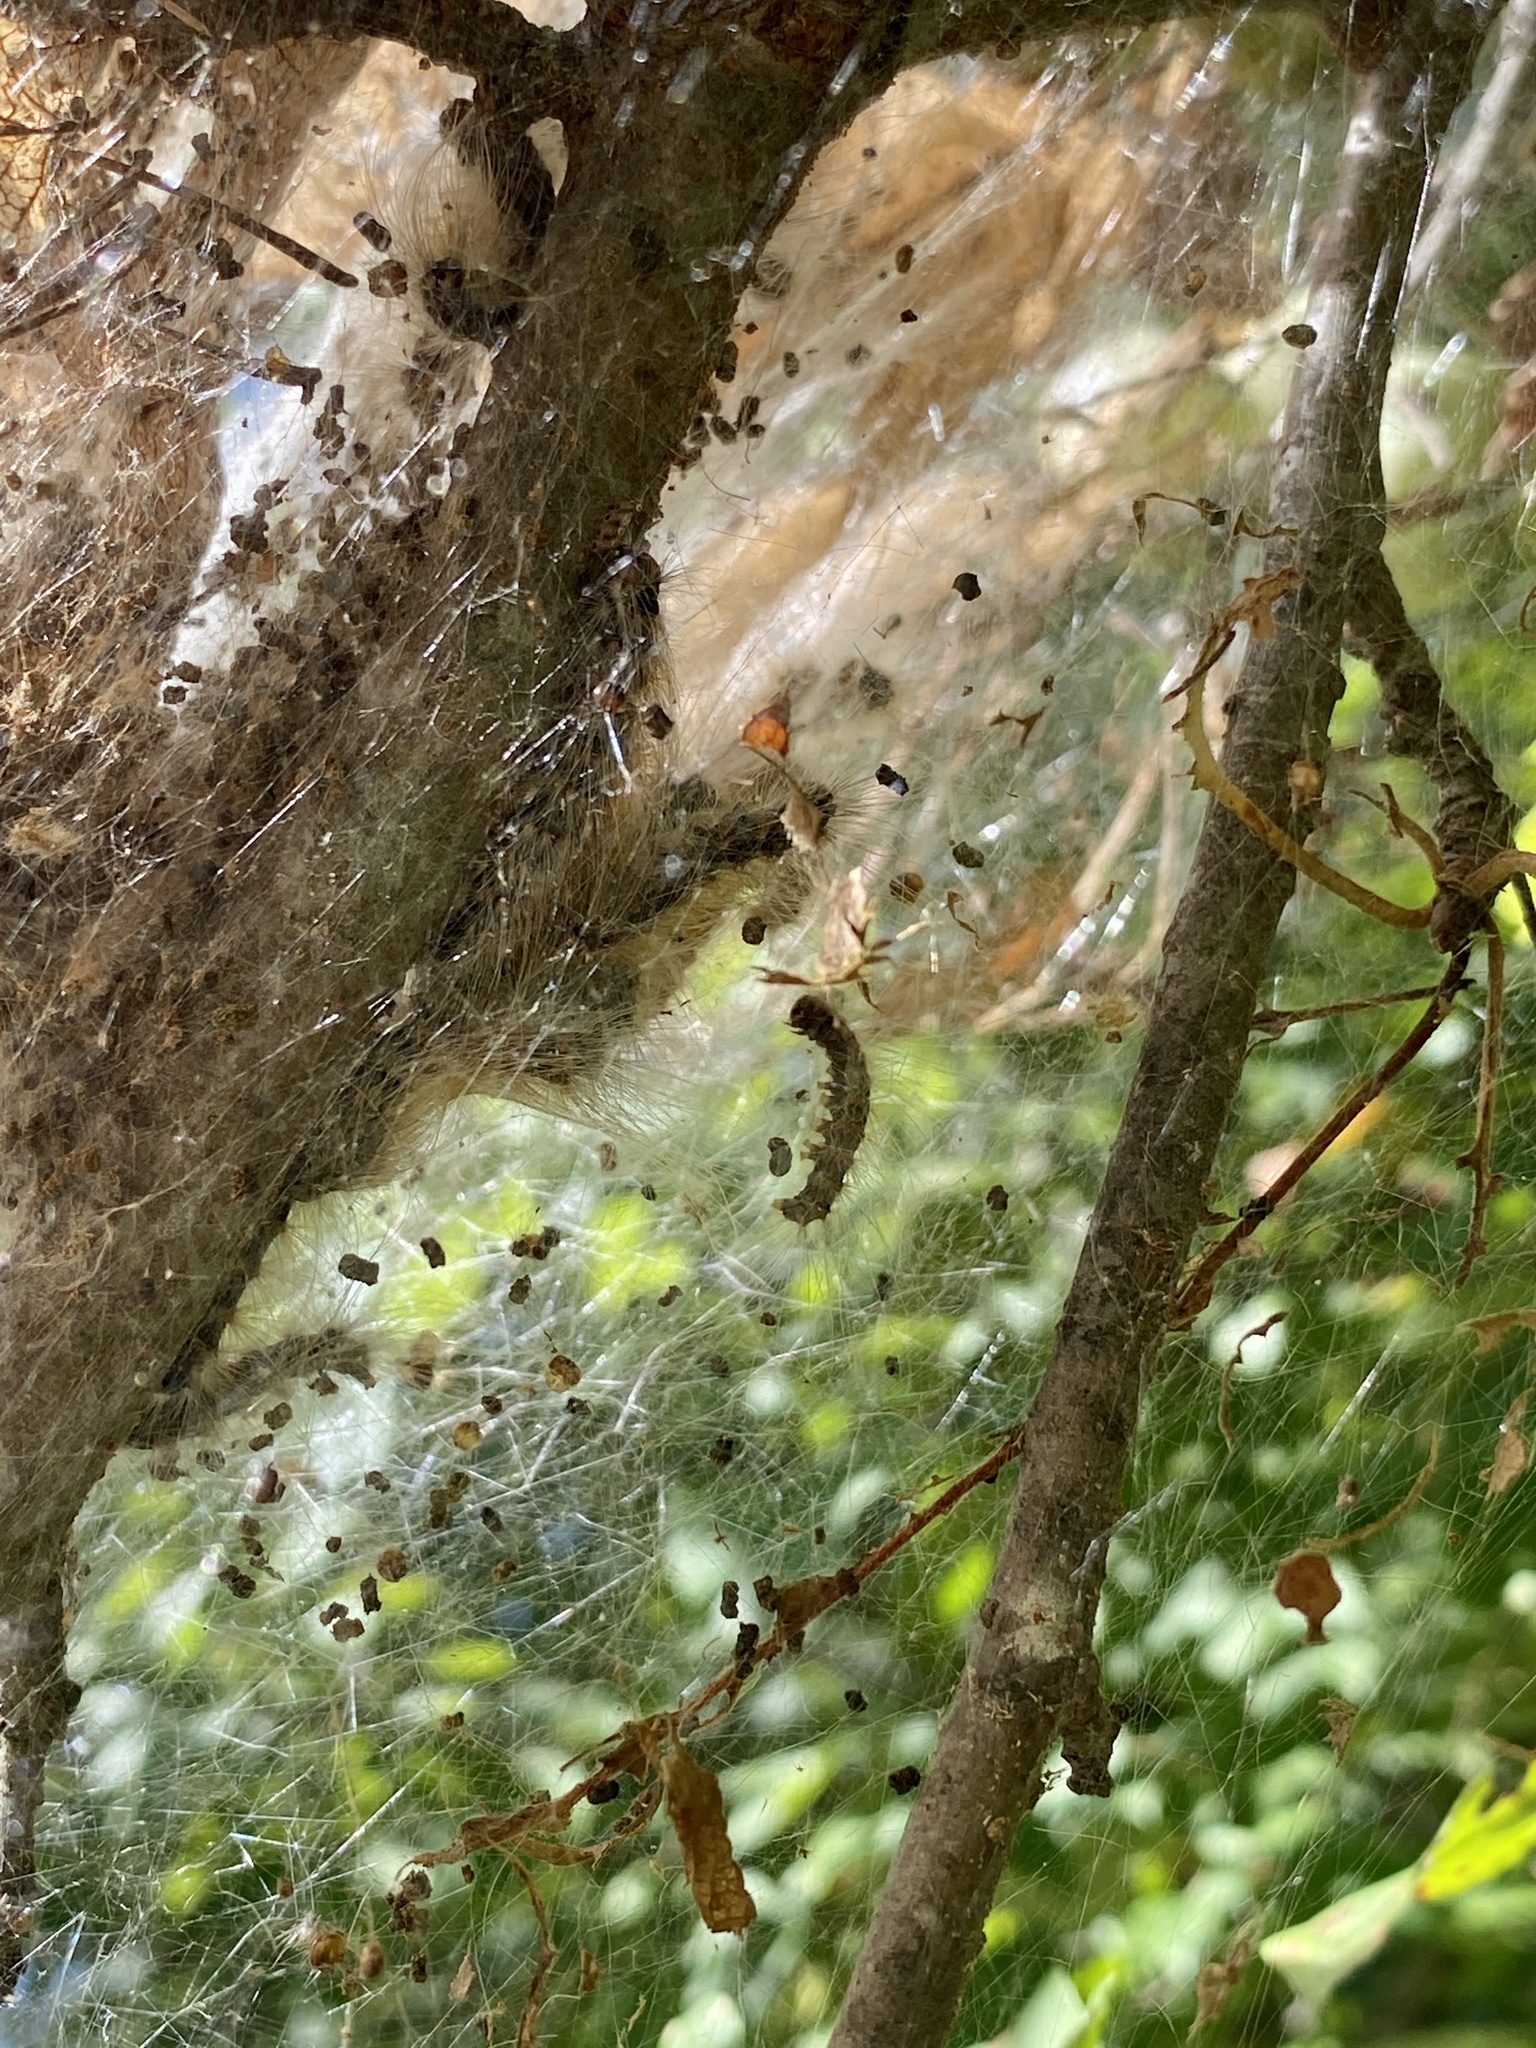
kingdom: Animalia
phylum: Arthropoda
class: Insecta
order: Lepidoptera
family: Erebidae
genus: Hyphantria
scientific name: Hyphantria cunea
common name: American white moth
